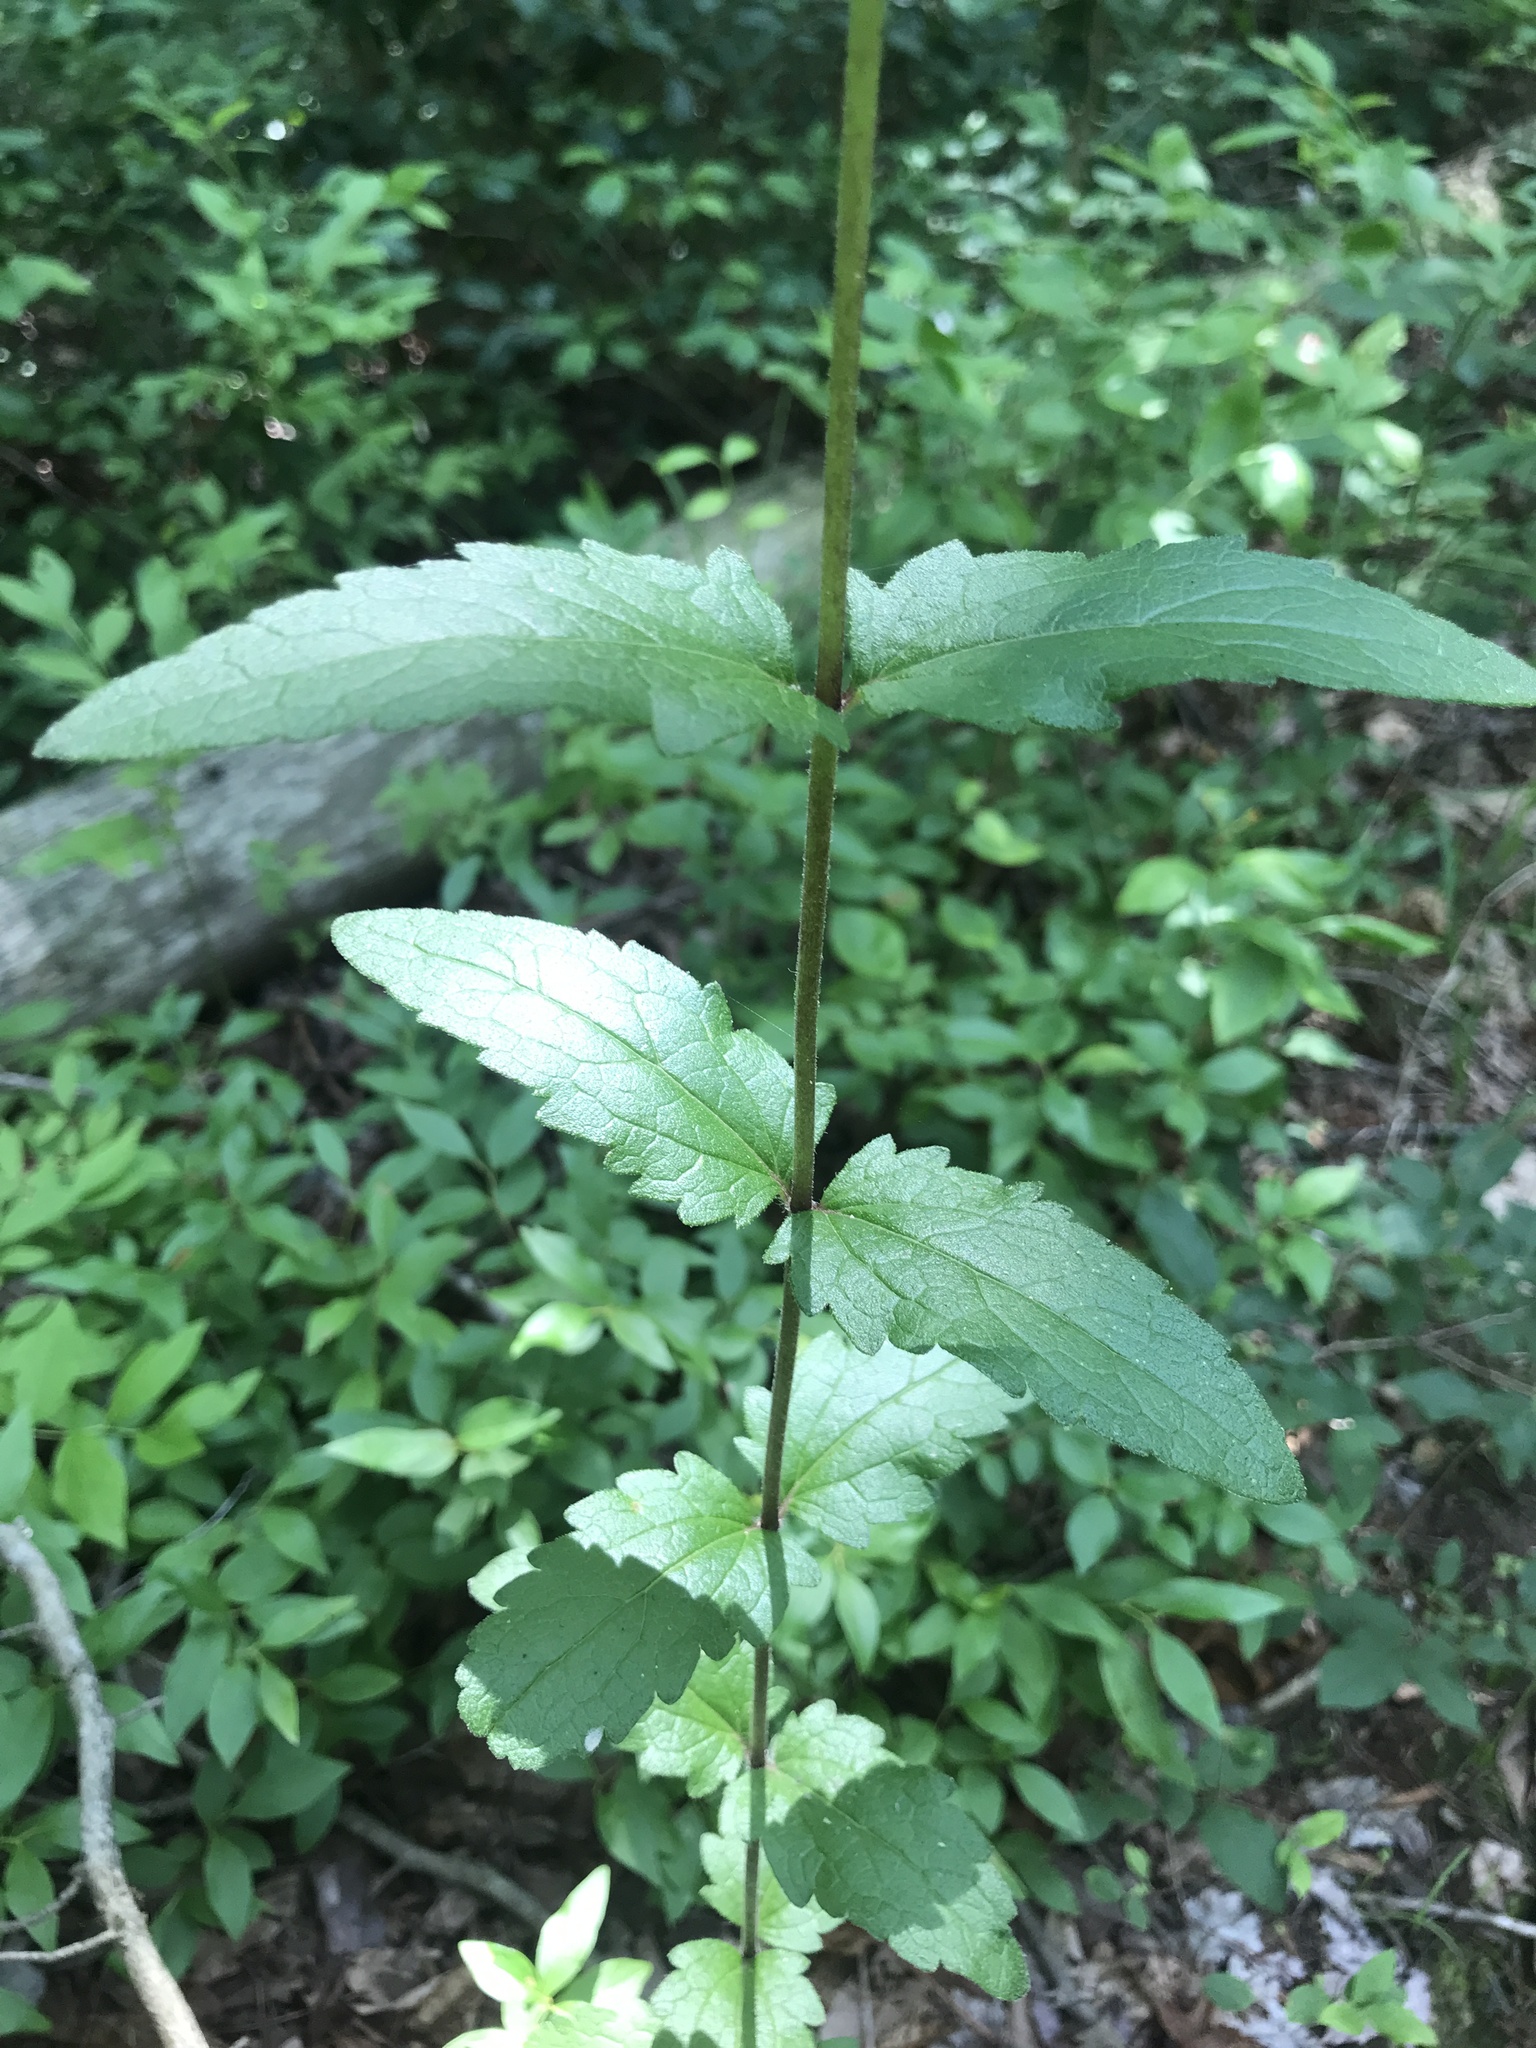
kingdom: Plantae
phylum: Tracheophyta
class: Magnoliopsida
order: Asterales
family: Asteraceae
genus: Eupatorium
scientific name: Eupatorium pilosum
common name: Rough boneset
